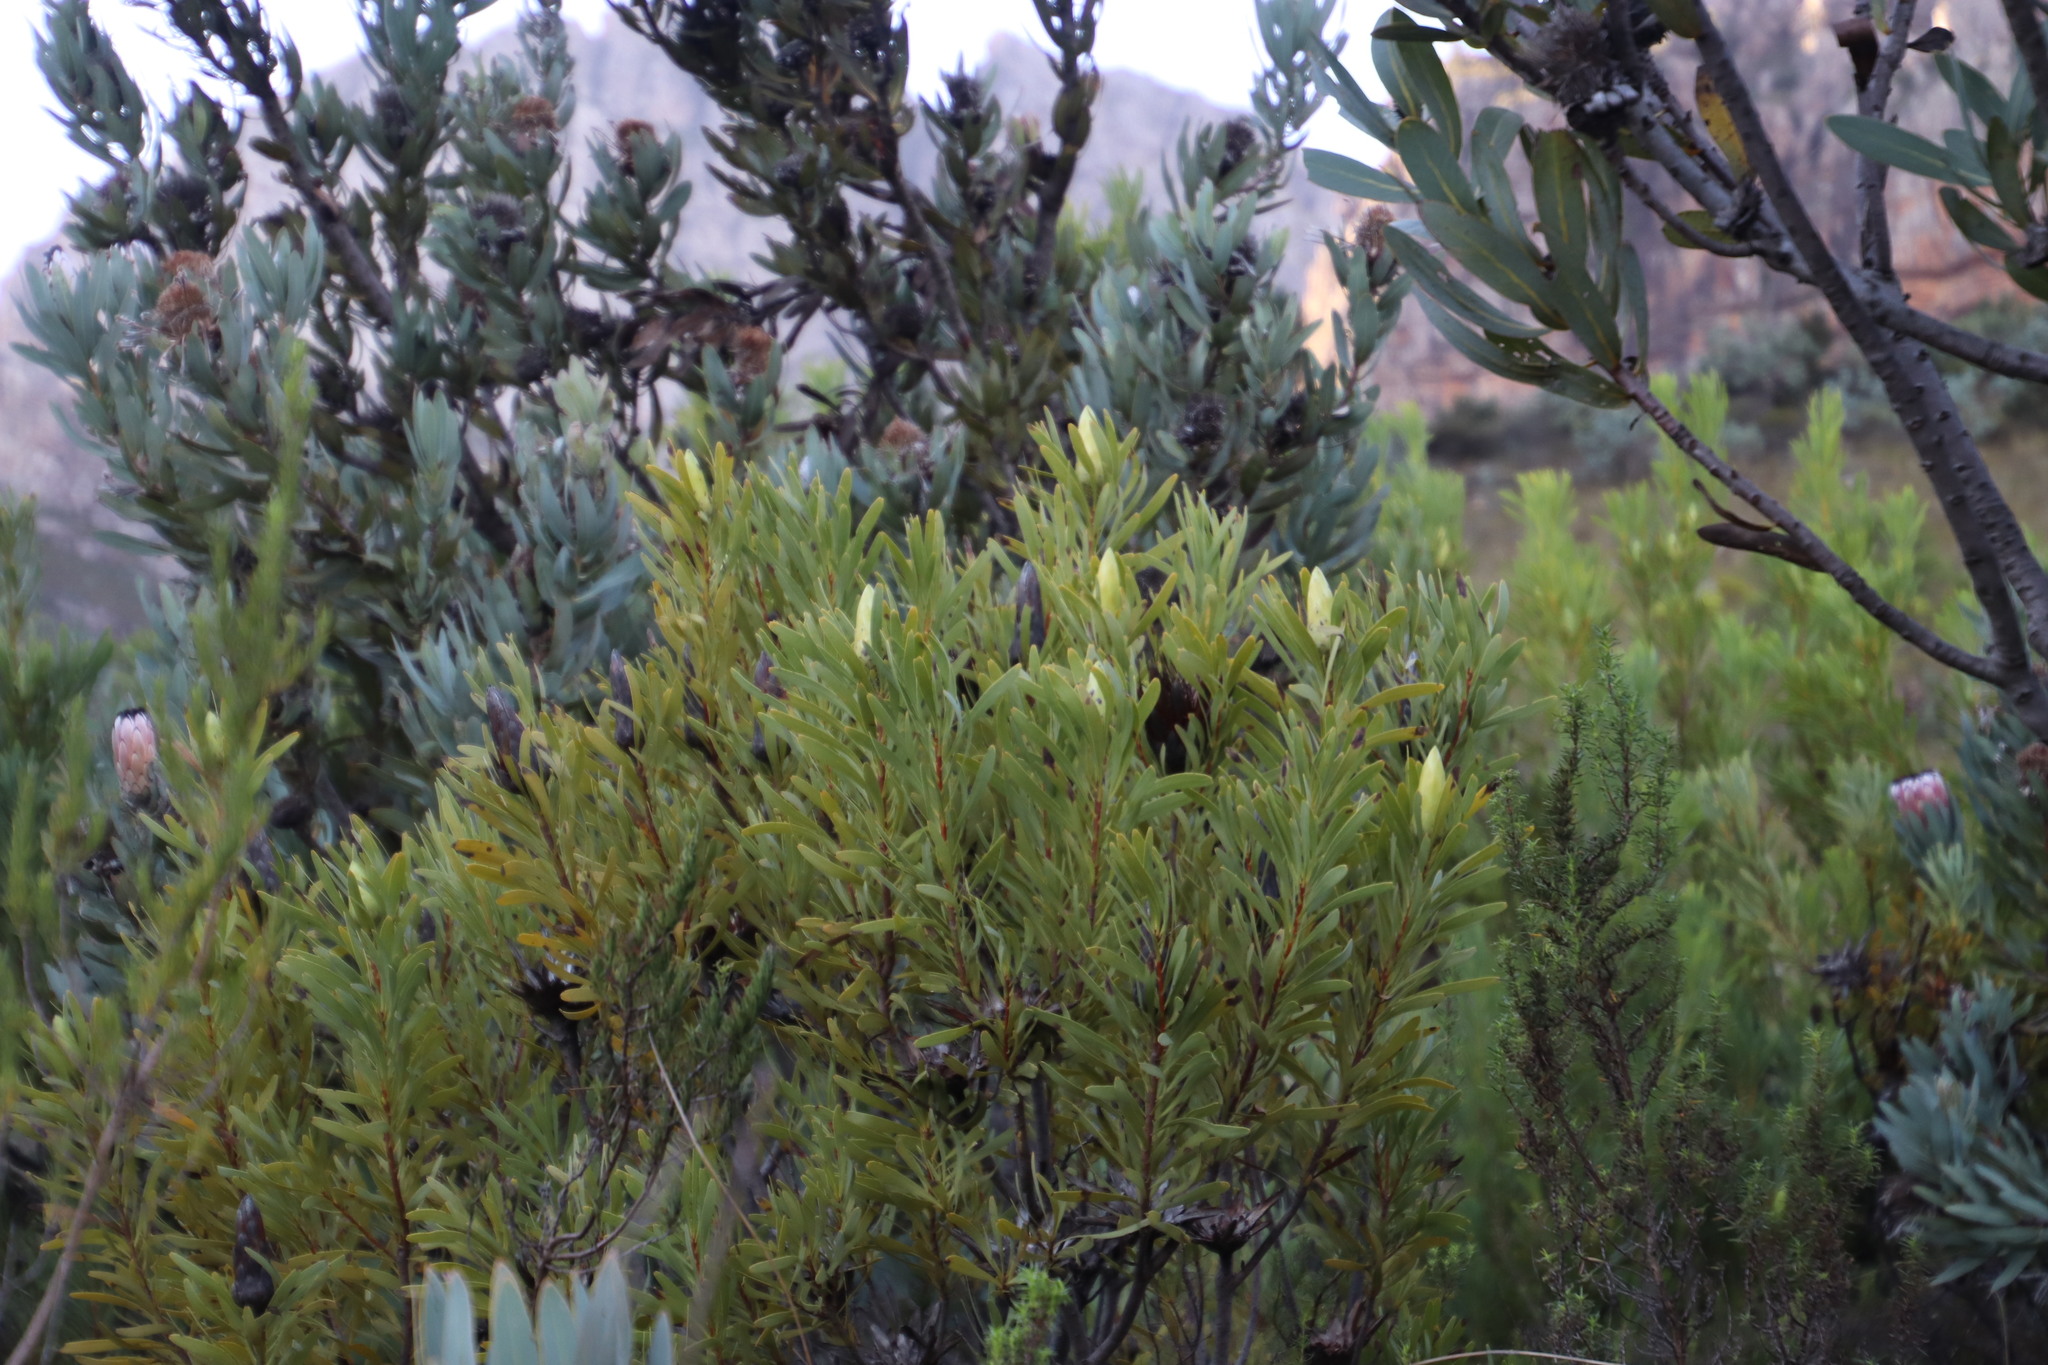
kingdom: Plantae
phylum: Tracheophyta
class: Magnoliopsida
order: Proteales
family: Proteaceae
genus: Protea
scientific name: Protea repens
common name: Sugarbush
